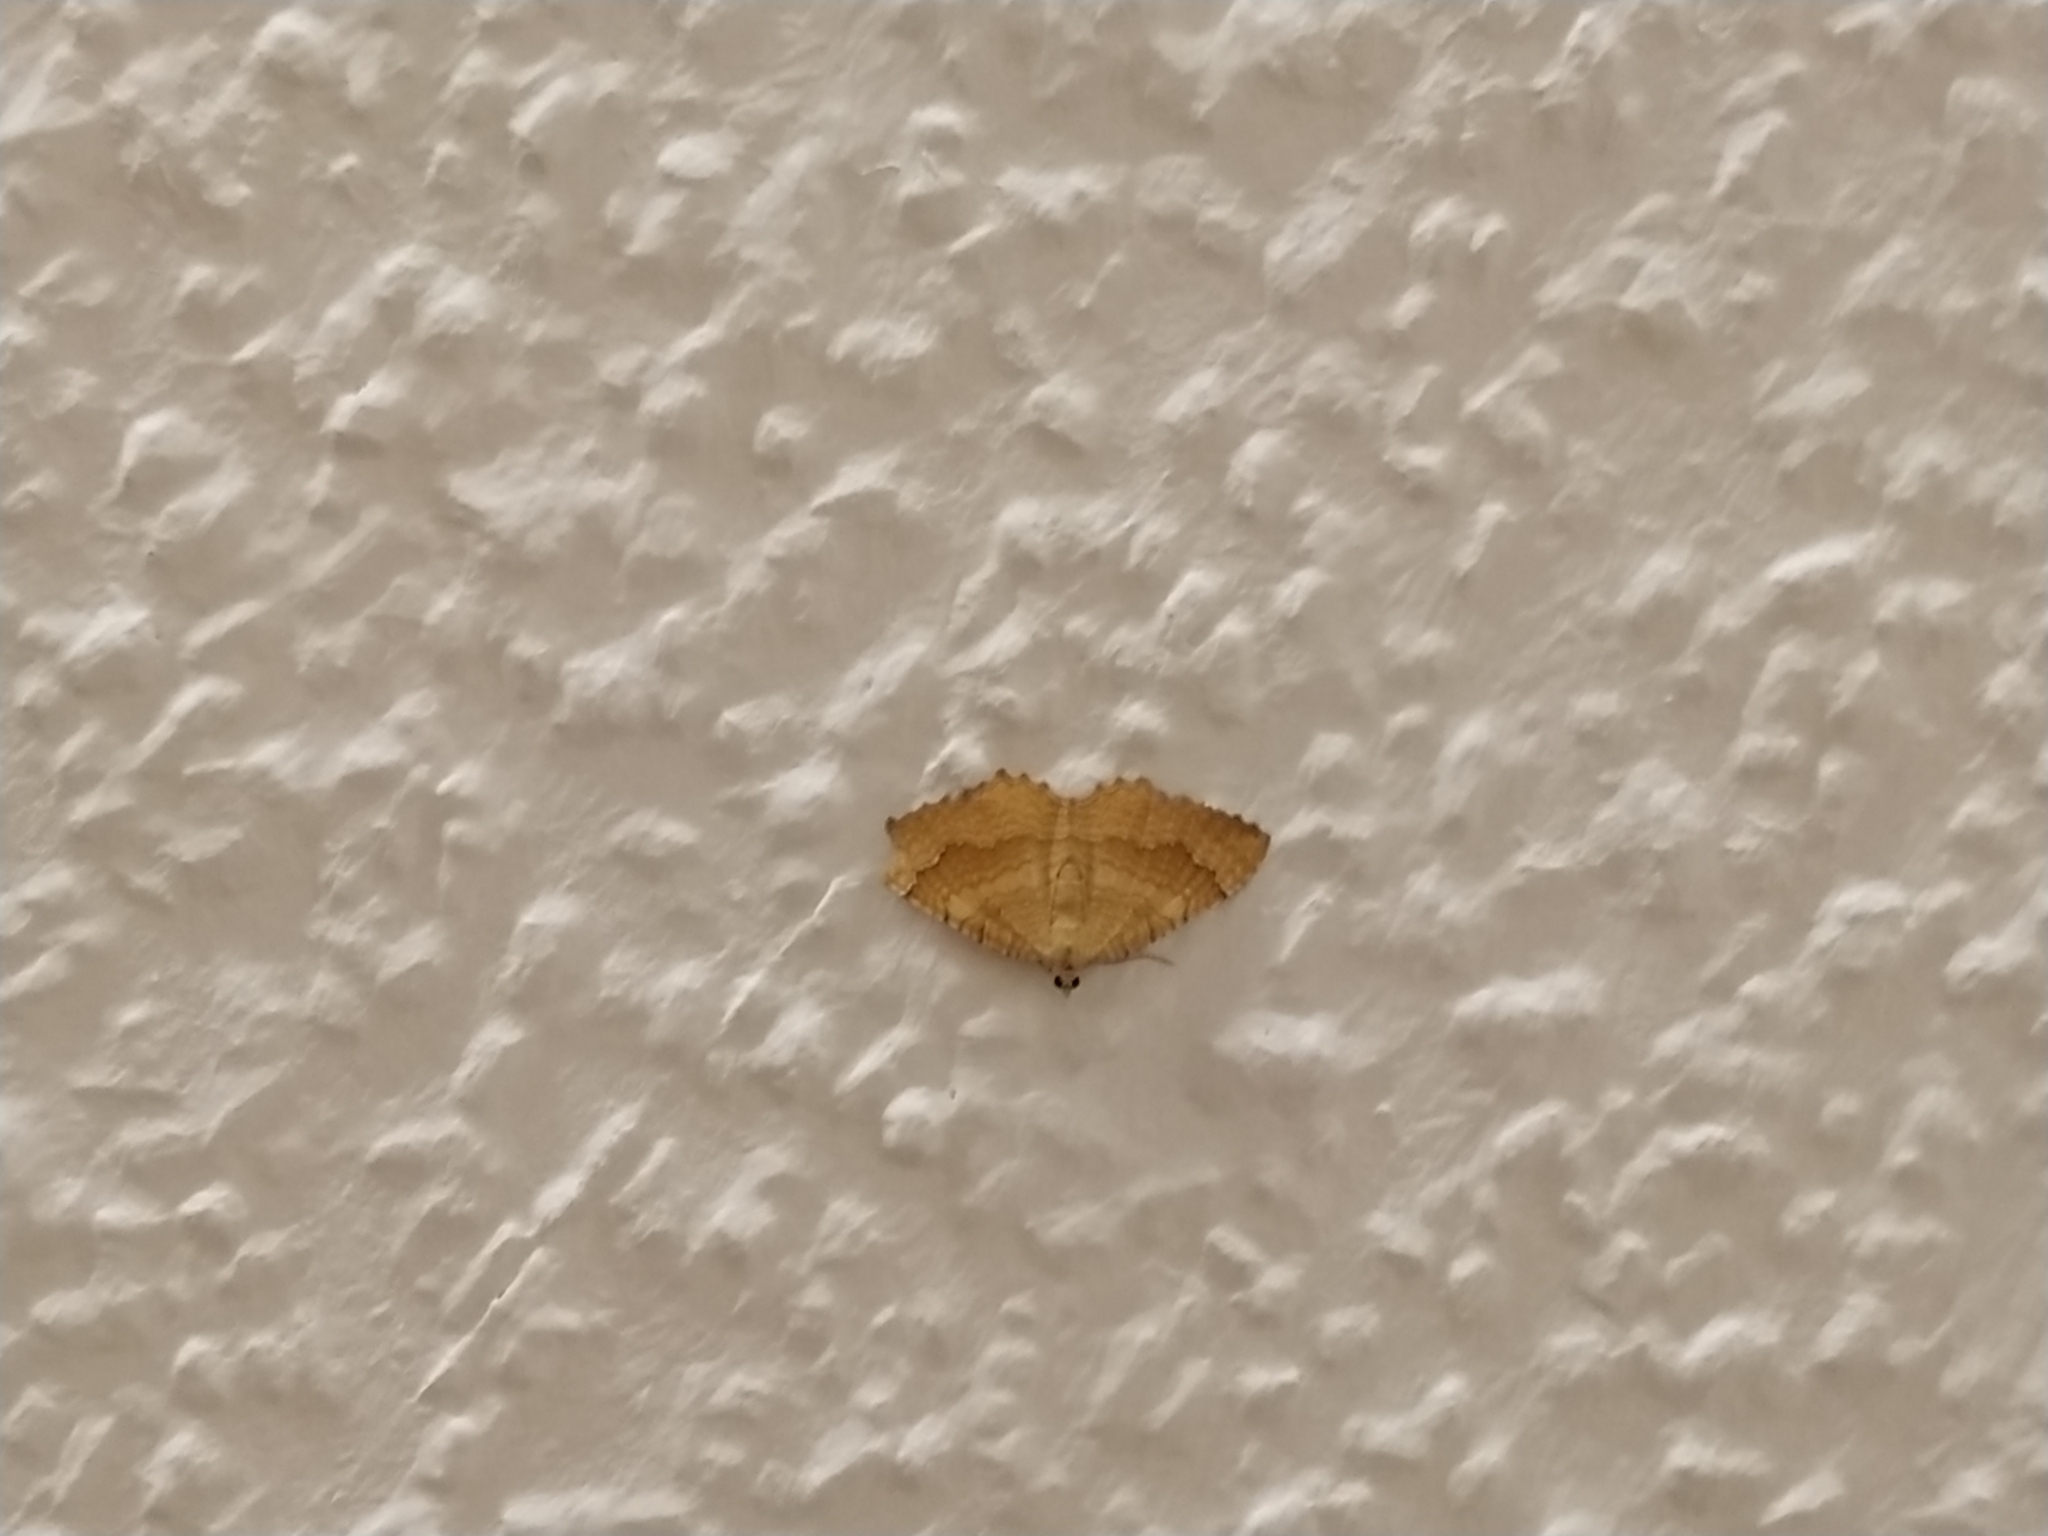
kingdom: Animalia
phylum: Arthropoda
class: Insecta
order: Lepidoptera
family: Geometridae
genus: Camptogramma
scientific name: Camptogramma bilineata
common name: Yellow shell
